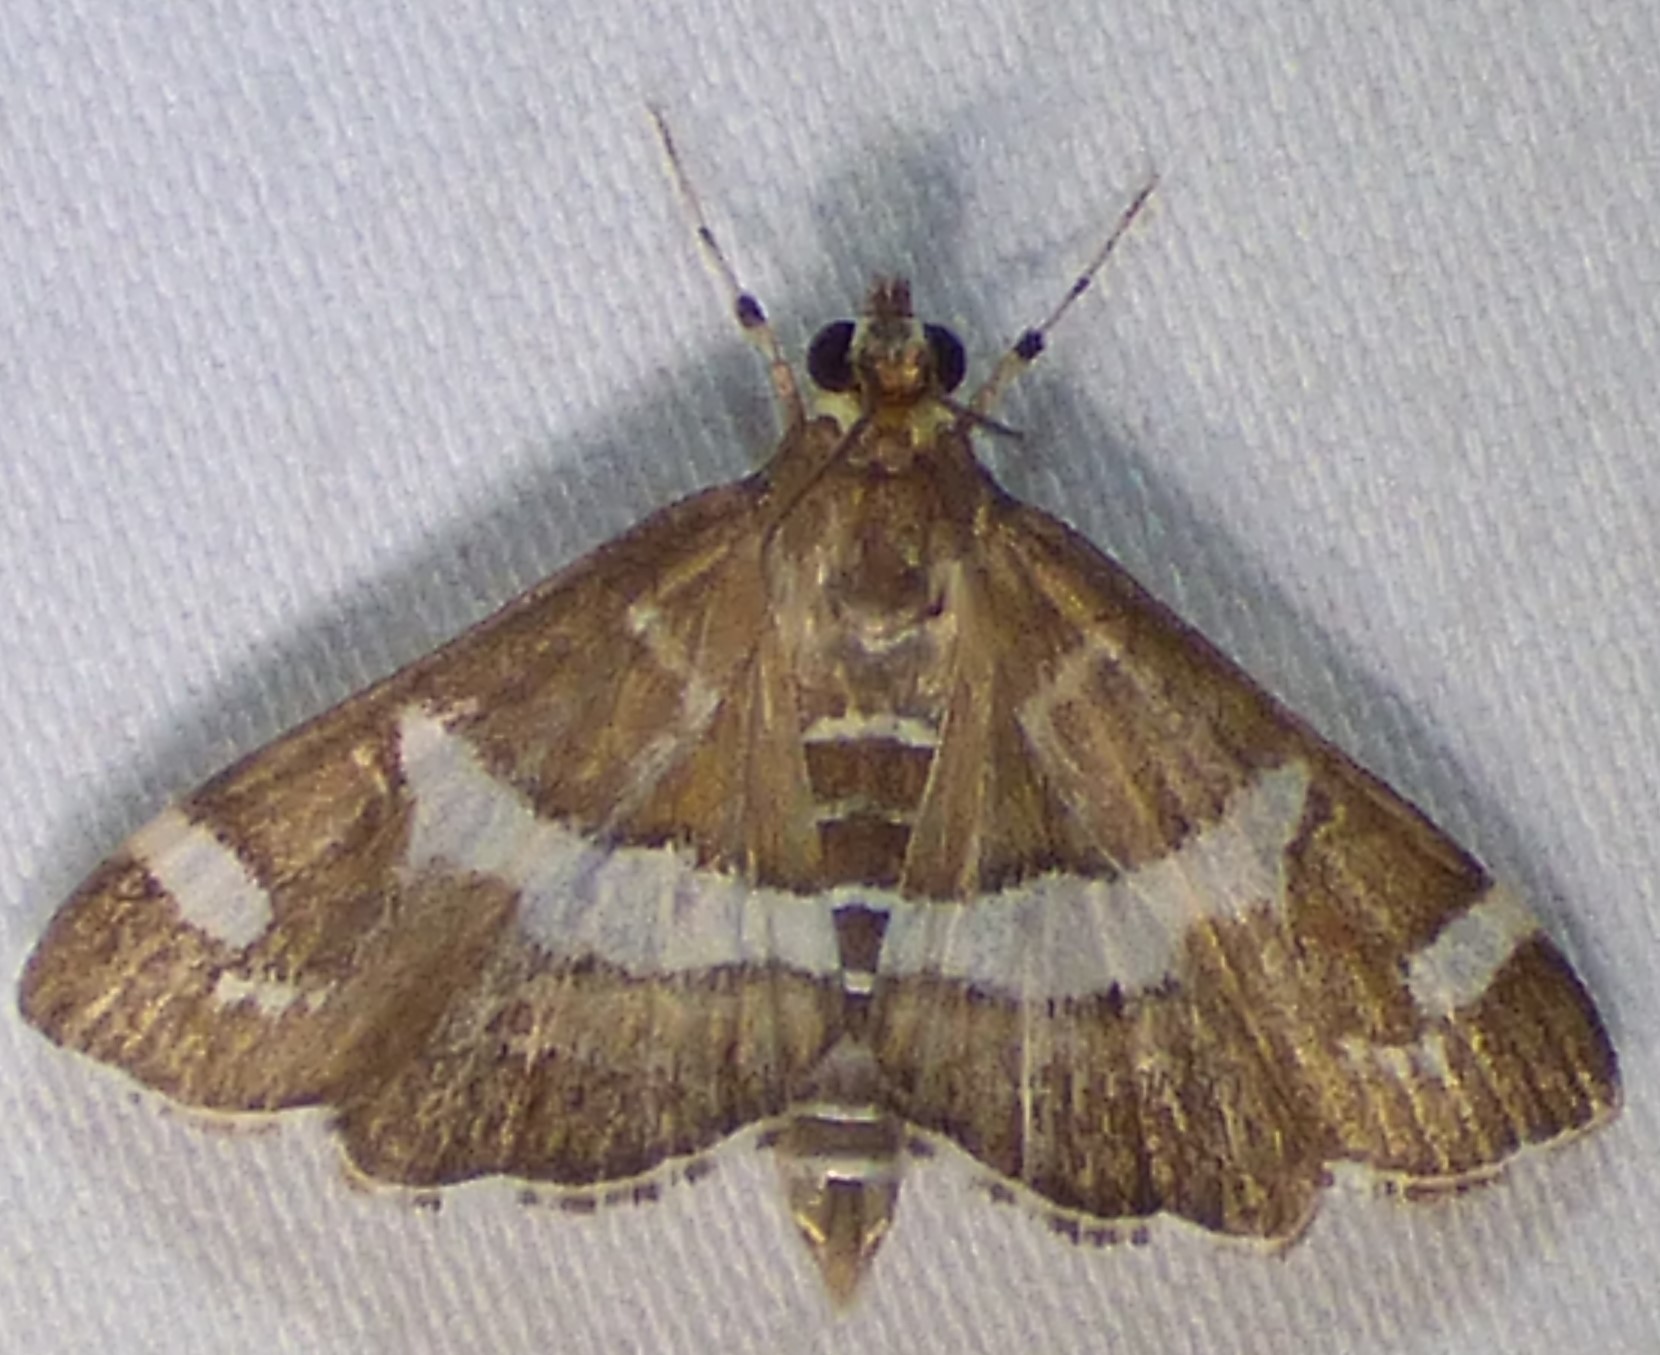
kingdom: Animalia
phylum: Arthropoda
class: Insecta
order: Lepidoptera
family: Crambidae
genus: Spoladea
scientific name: Spoladea recurvalis
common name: Beet webworm moth
